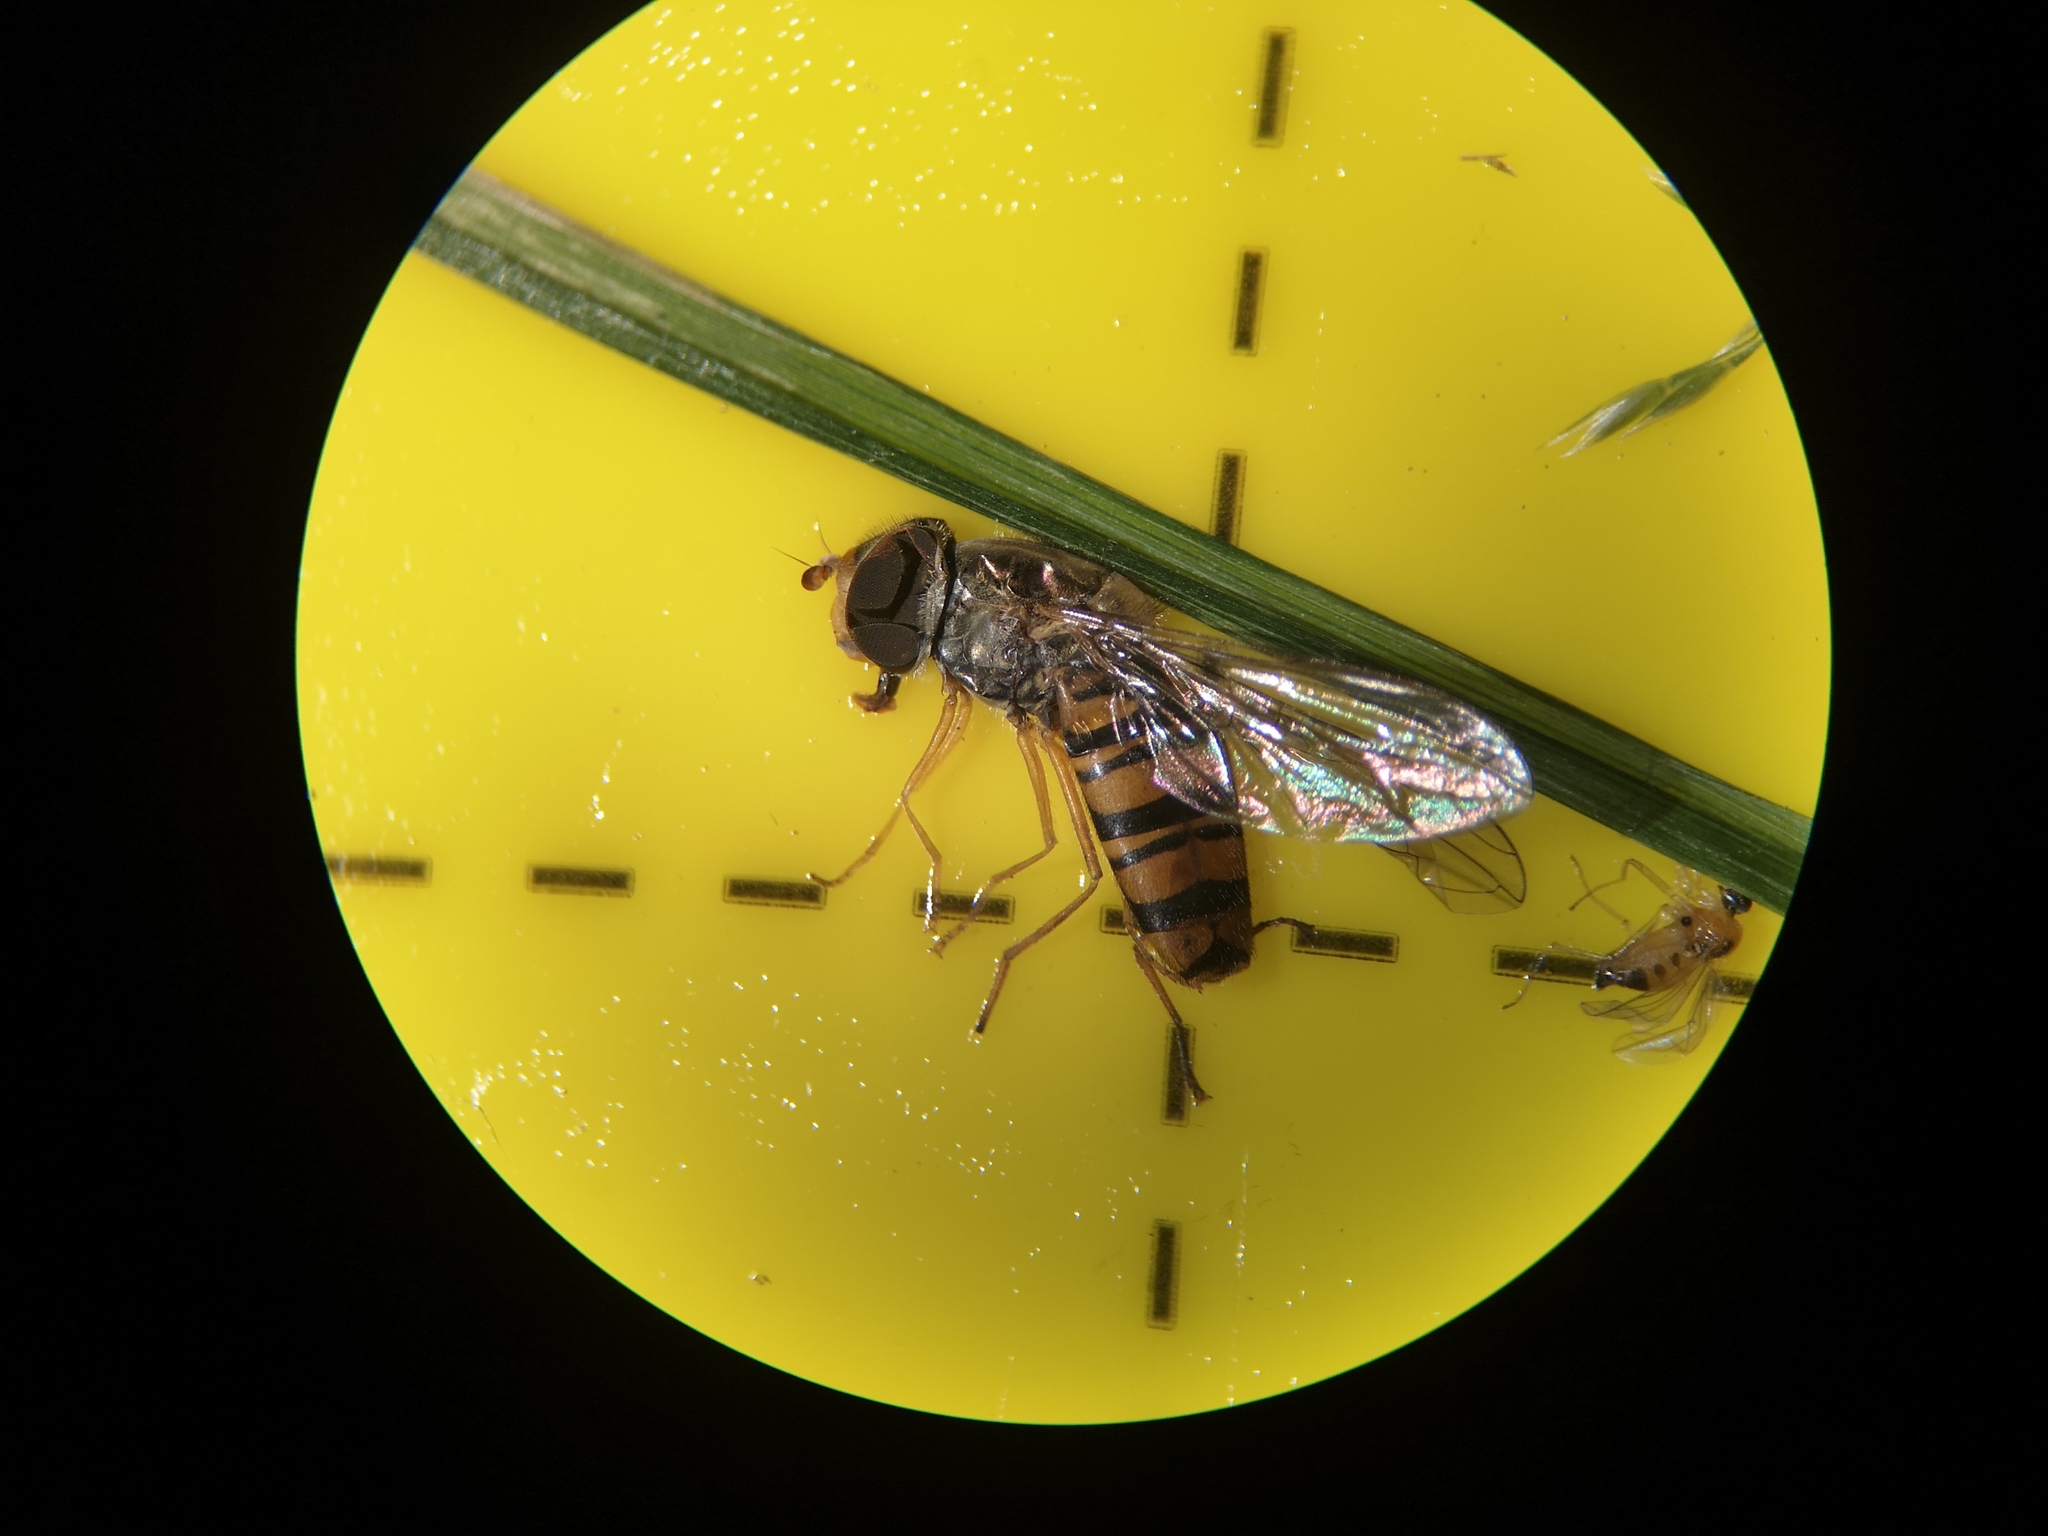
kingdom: Animalia
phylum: Arthropoda
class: Insecta
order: Diptera
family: Syrphidae
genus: Episyrphus
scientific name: Episyrphus balteatus
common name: Marmalade hoverfly
